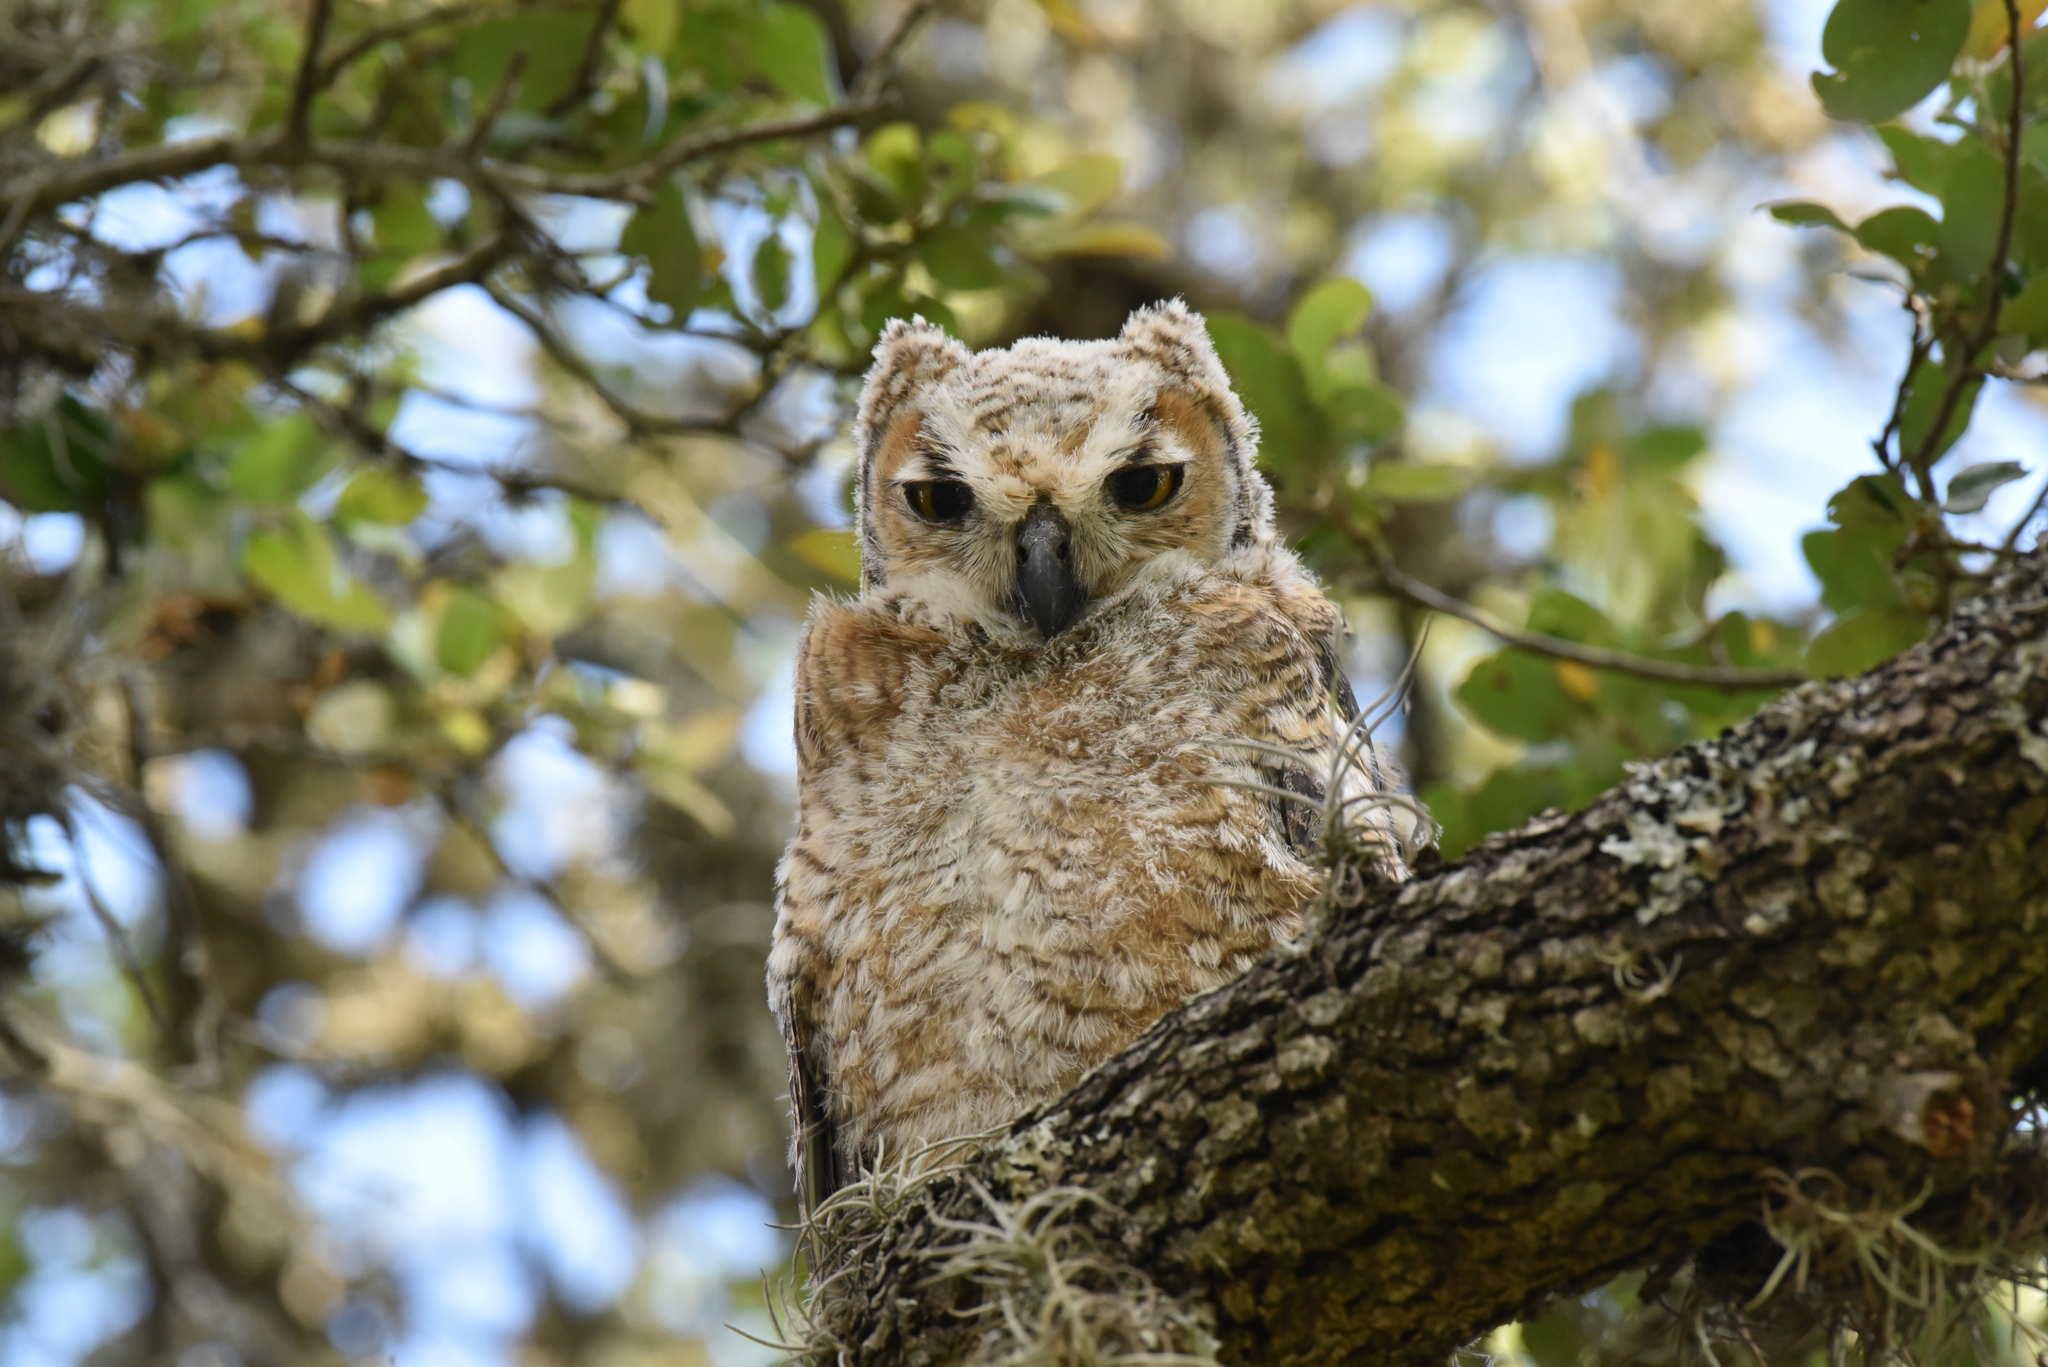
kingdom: Animalia
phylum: Chordata
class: Aves
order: Strigiformes
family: Strigidae
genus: Bubo
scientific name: Bubo virginianus
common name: Great horned owl
